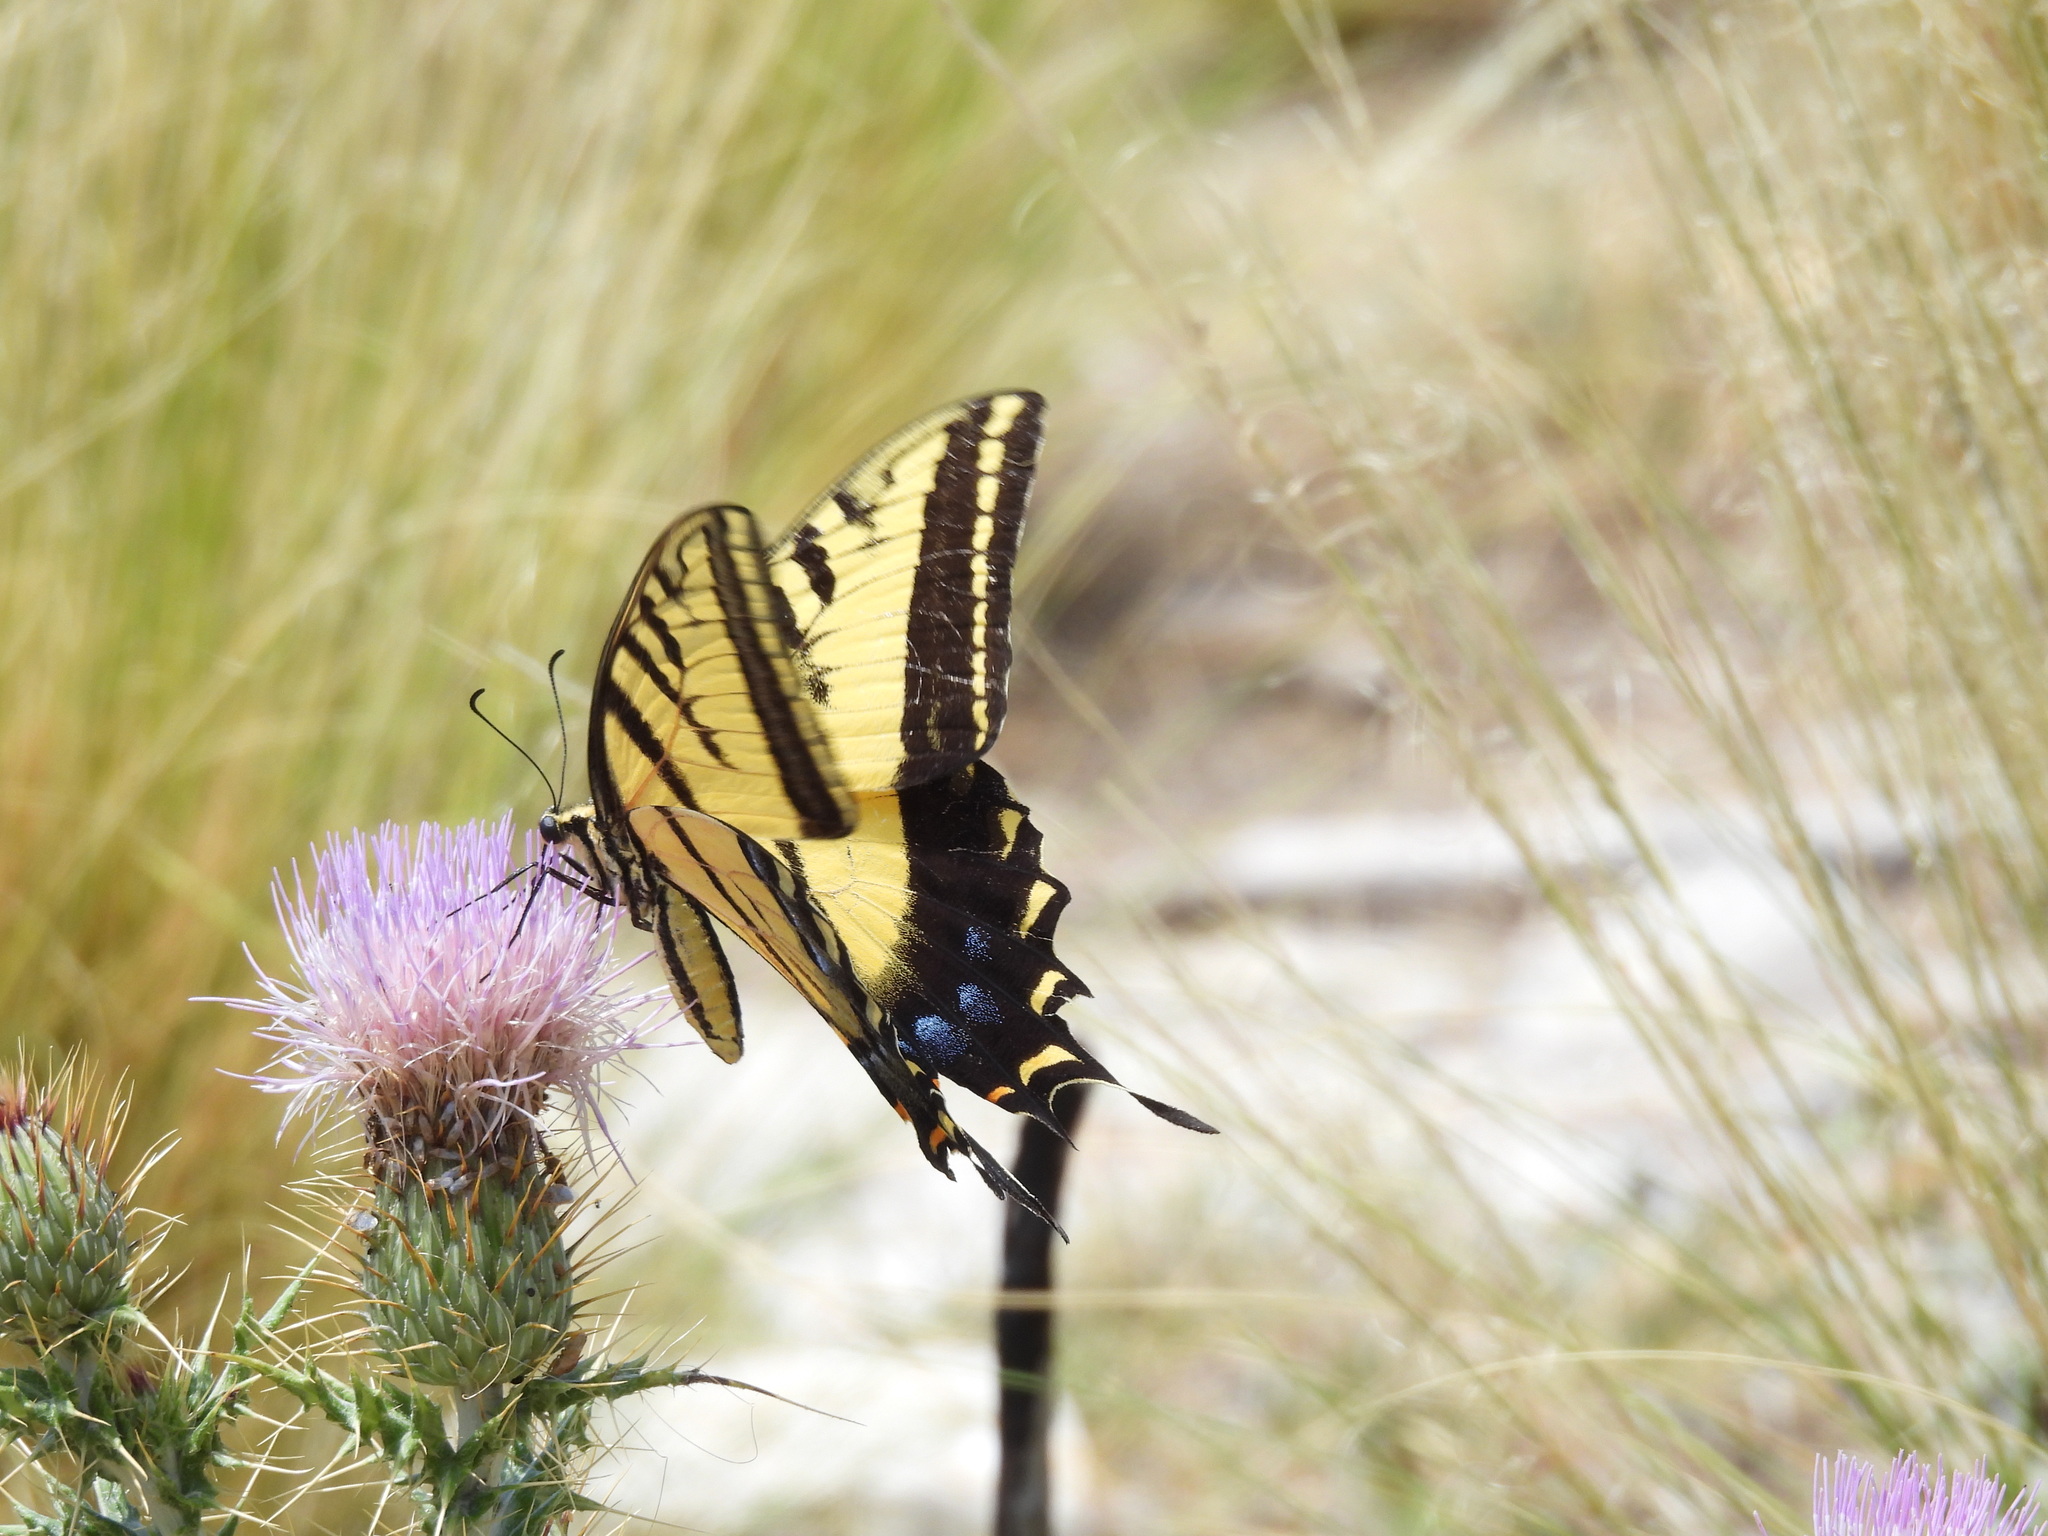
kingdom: Animalia
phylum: Arthropoda
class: Insecta
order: Lepidoptera
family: Papilionidae
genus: Papilio
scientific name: Papilio multicaudata
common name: Two-tailed tiger swallowtail
